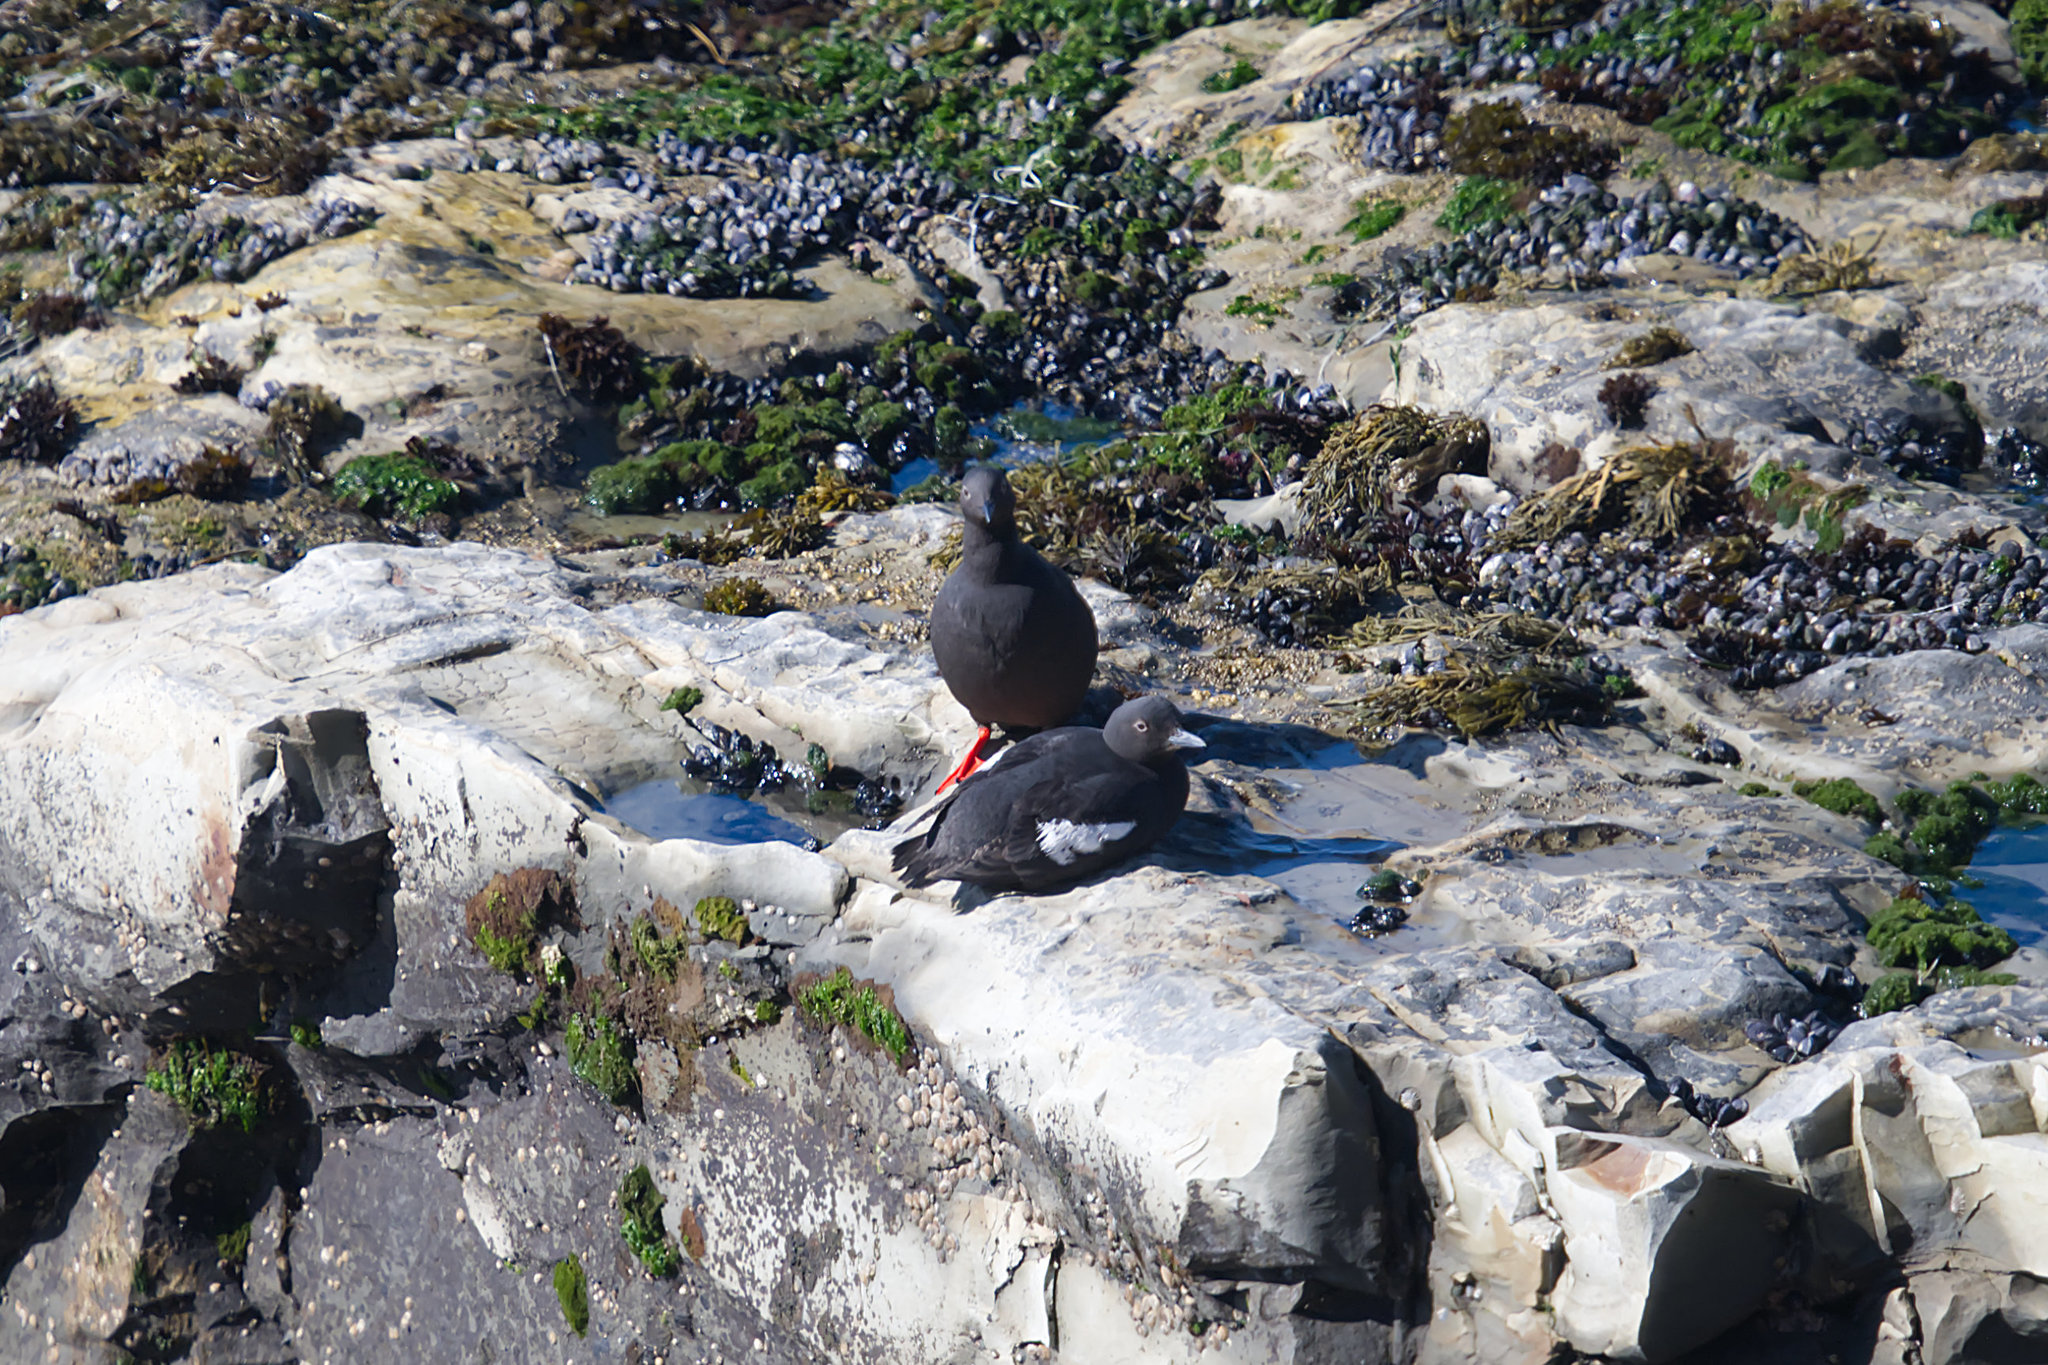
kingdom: Animalia
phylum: Chordata
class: Aves
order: Charadriiformes
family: Alcidae
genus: Cepphus
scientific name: Cepphus columba
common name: Pigeon guillemot
